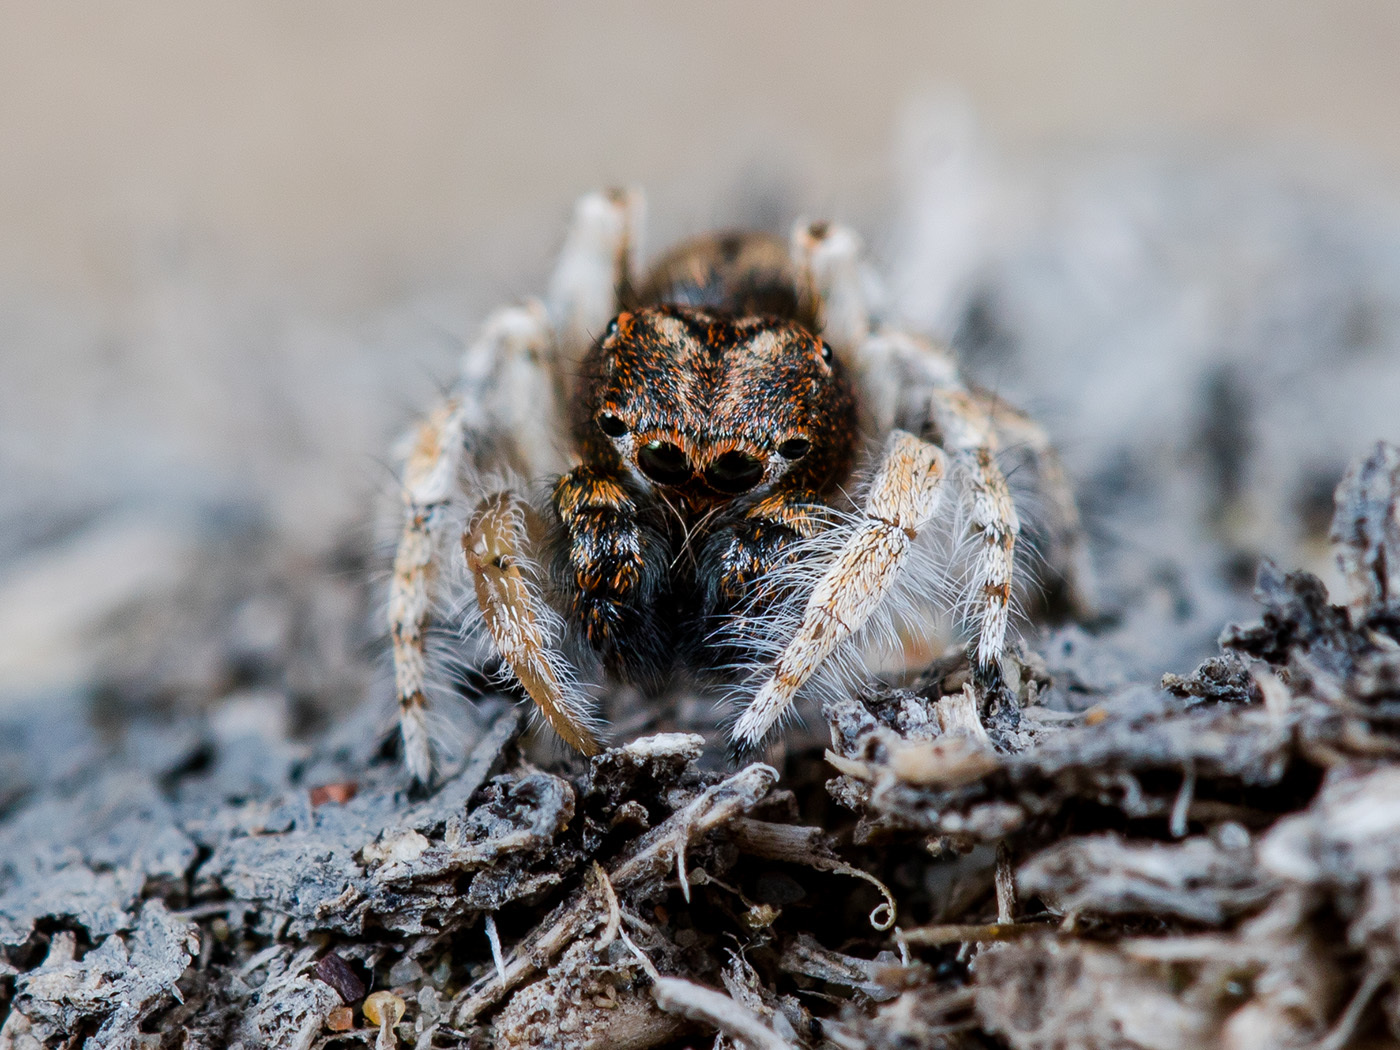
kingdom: Animalia
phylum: Arthropoda
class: Arachnida
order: Araneae
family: Salticidae
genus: Yllenus
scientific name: Yllenus uiguricus
